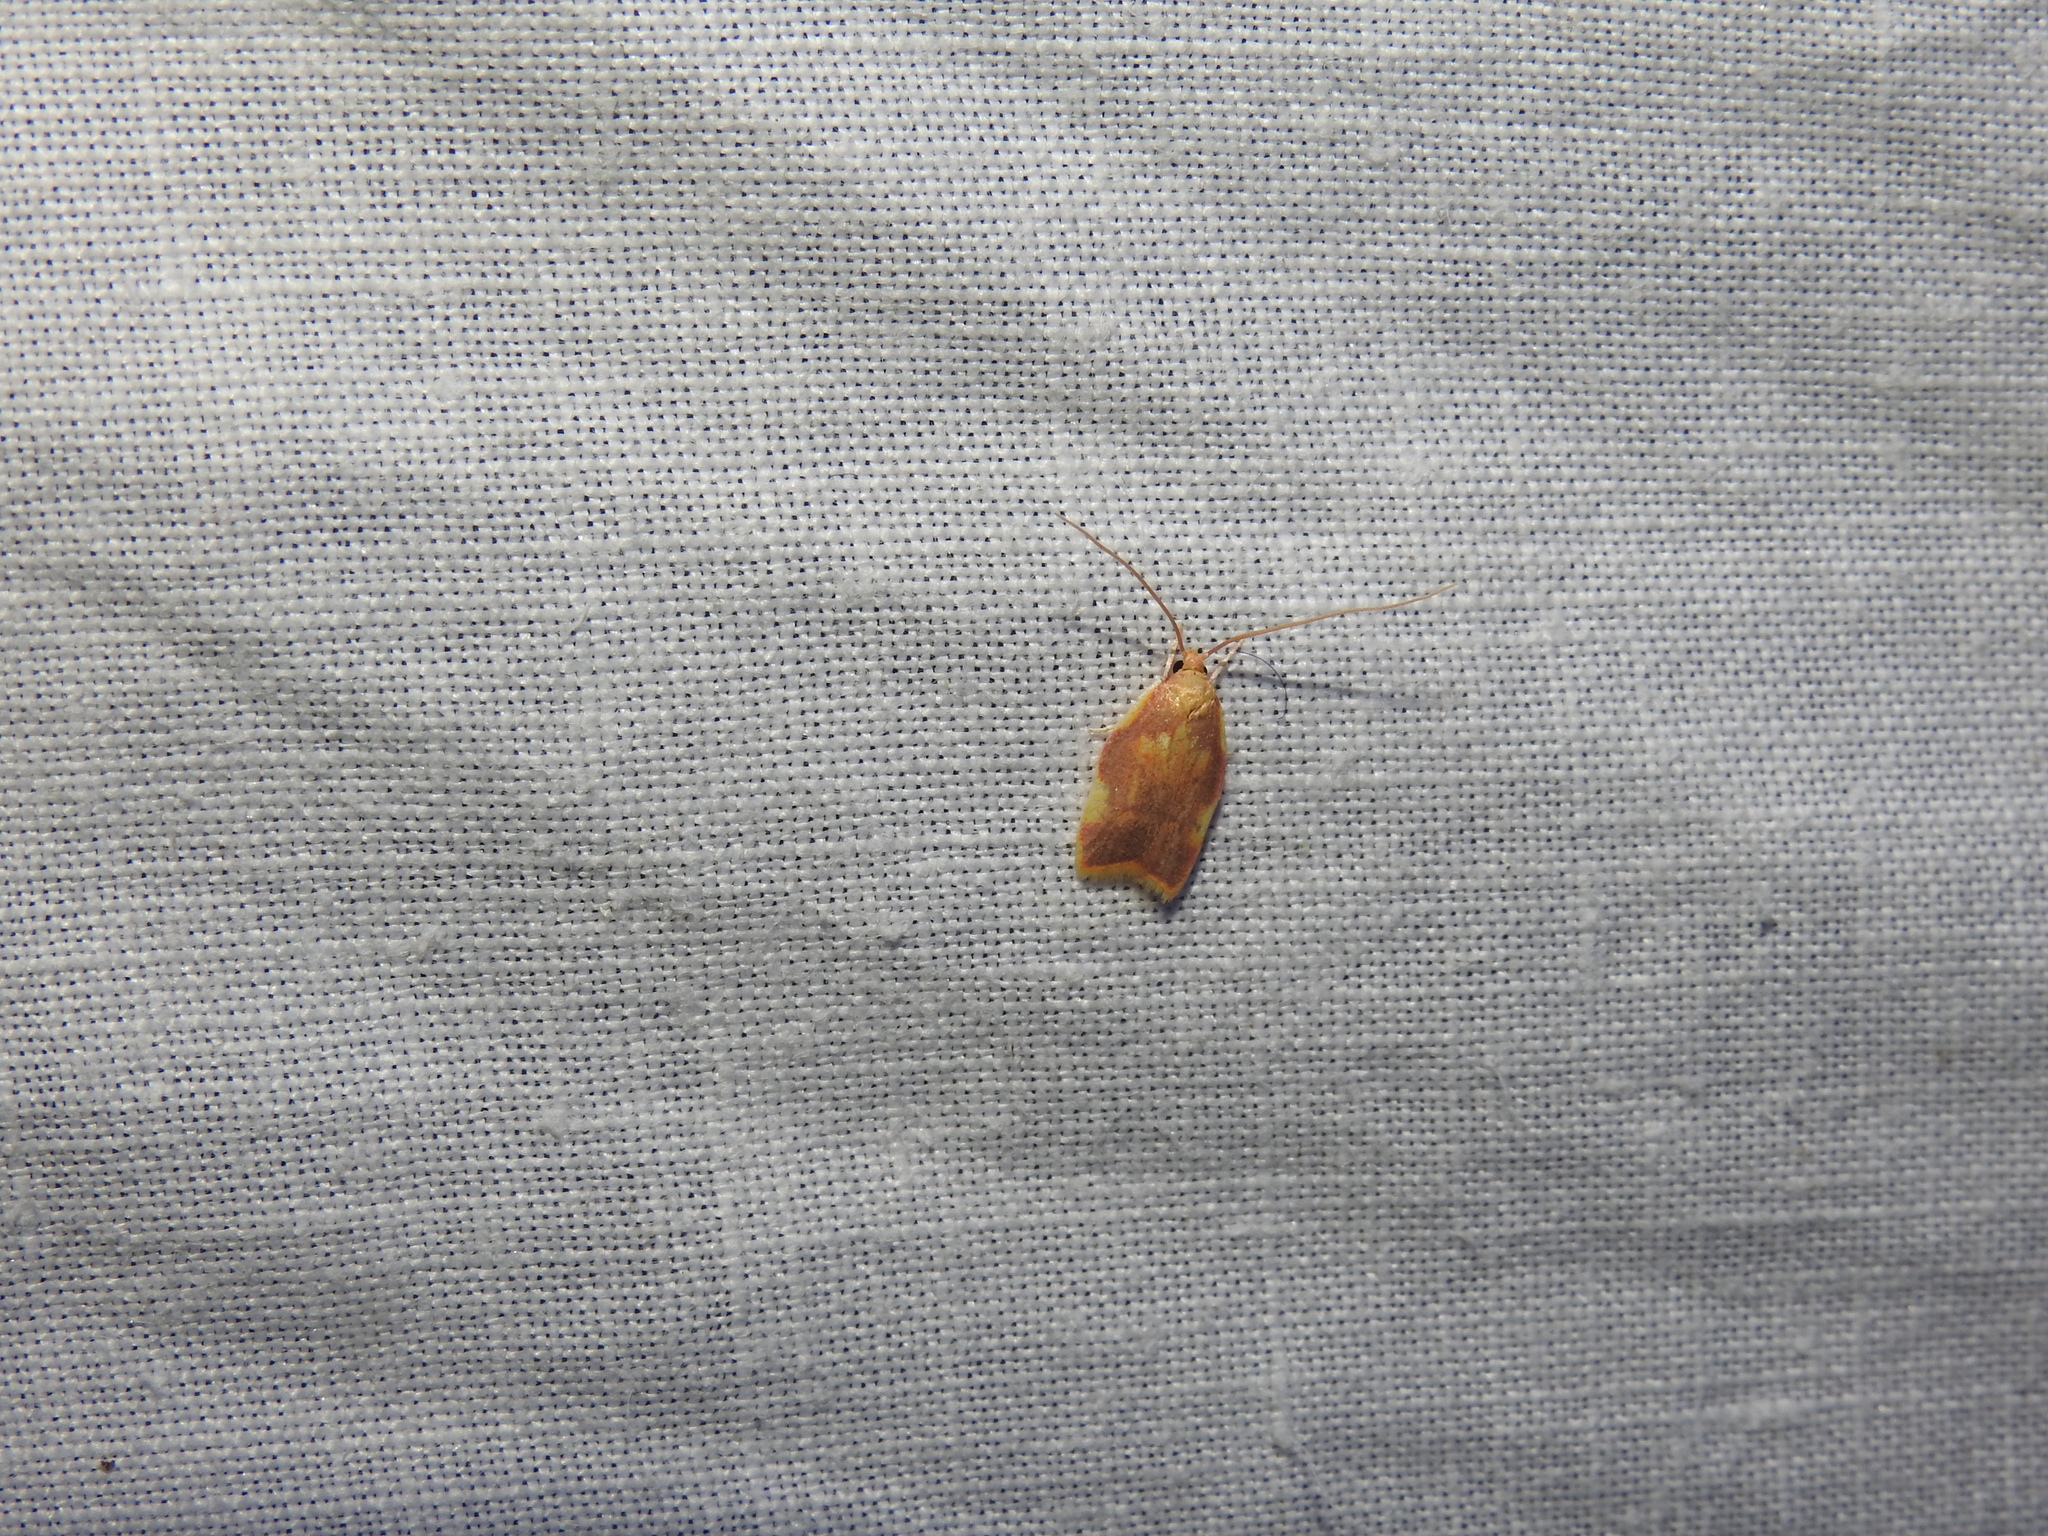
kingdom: Animalia
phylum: Arthropoda
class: Insecta
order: Lepidoptera
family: Peleopodidae
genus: Carcina
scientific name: Carcina quercana
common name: Moth
